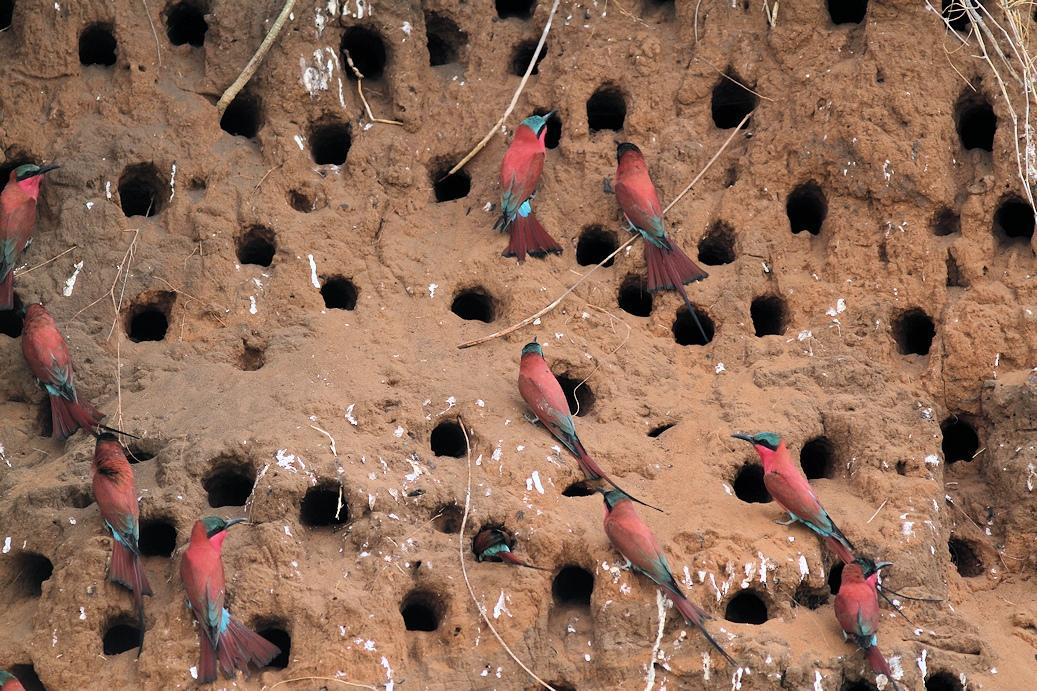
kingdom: Animalia
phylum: Chordata
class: Aves
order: Coraciiformes
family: Meropidae
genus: Merops
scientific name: Merops nubicoides
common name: Southern carmine bee-eater
